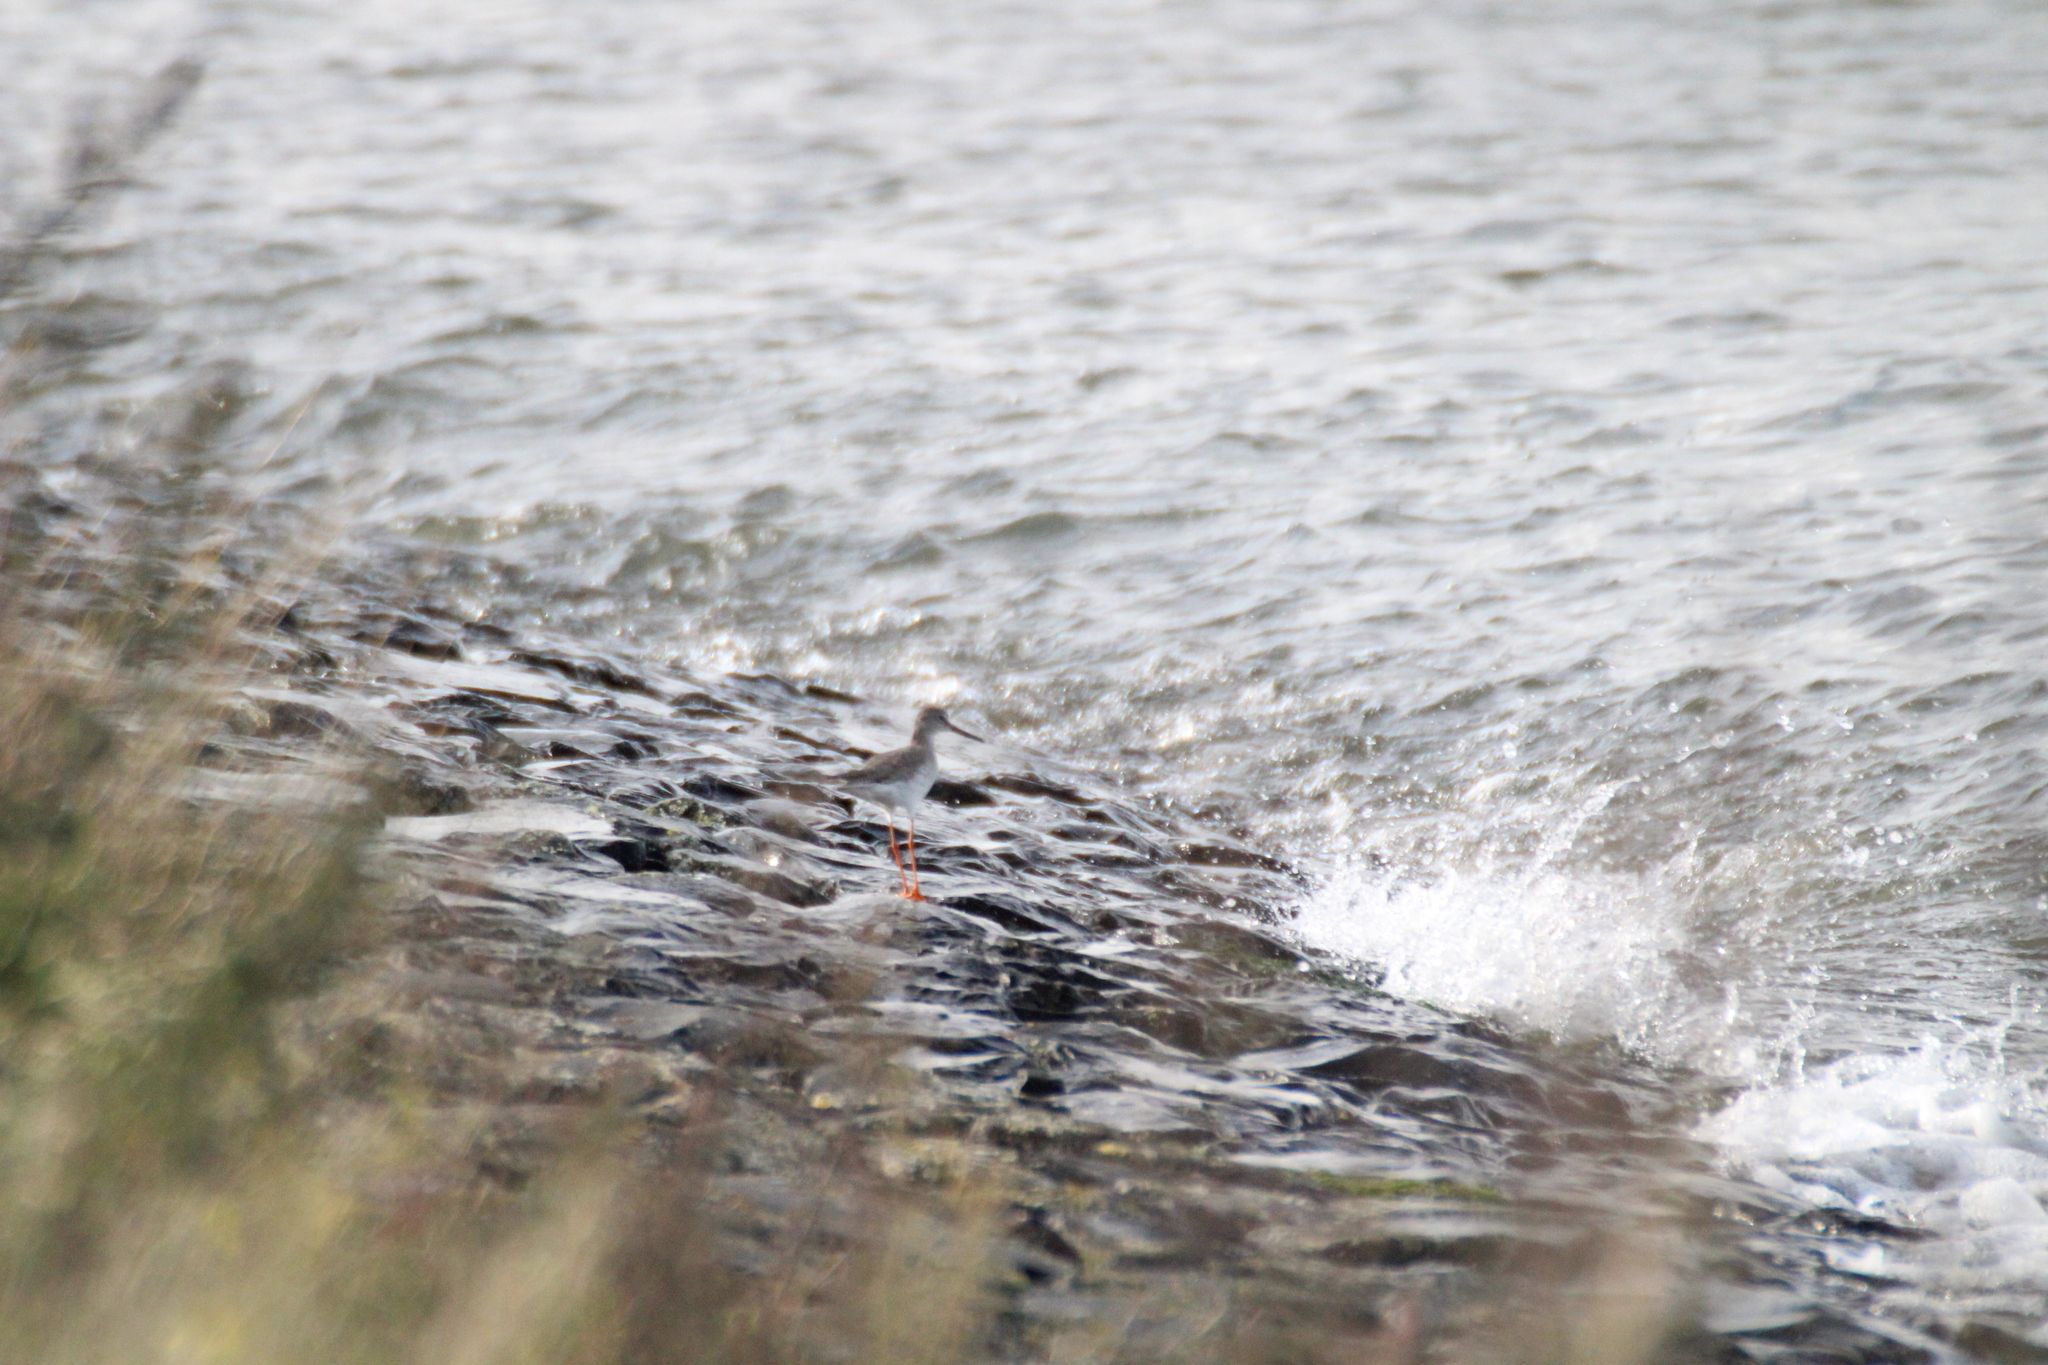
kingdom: Animalia
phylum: Chordata
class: Aves
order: Charadriiformes
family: Scolopacidae
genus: Tringa
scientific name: Tringa totanus
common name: Common redshank
